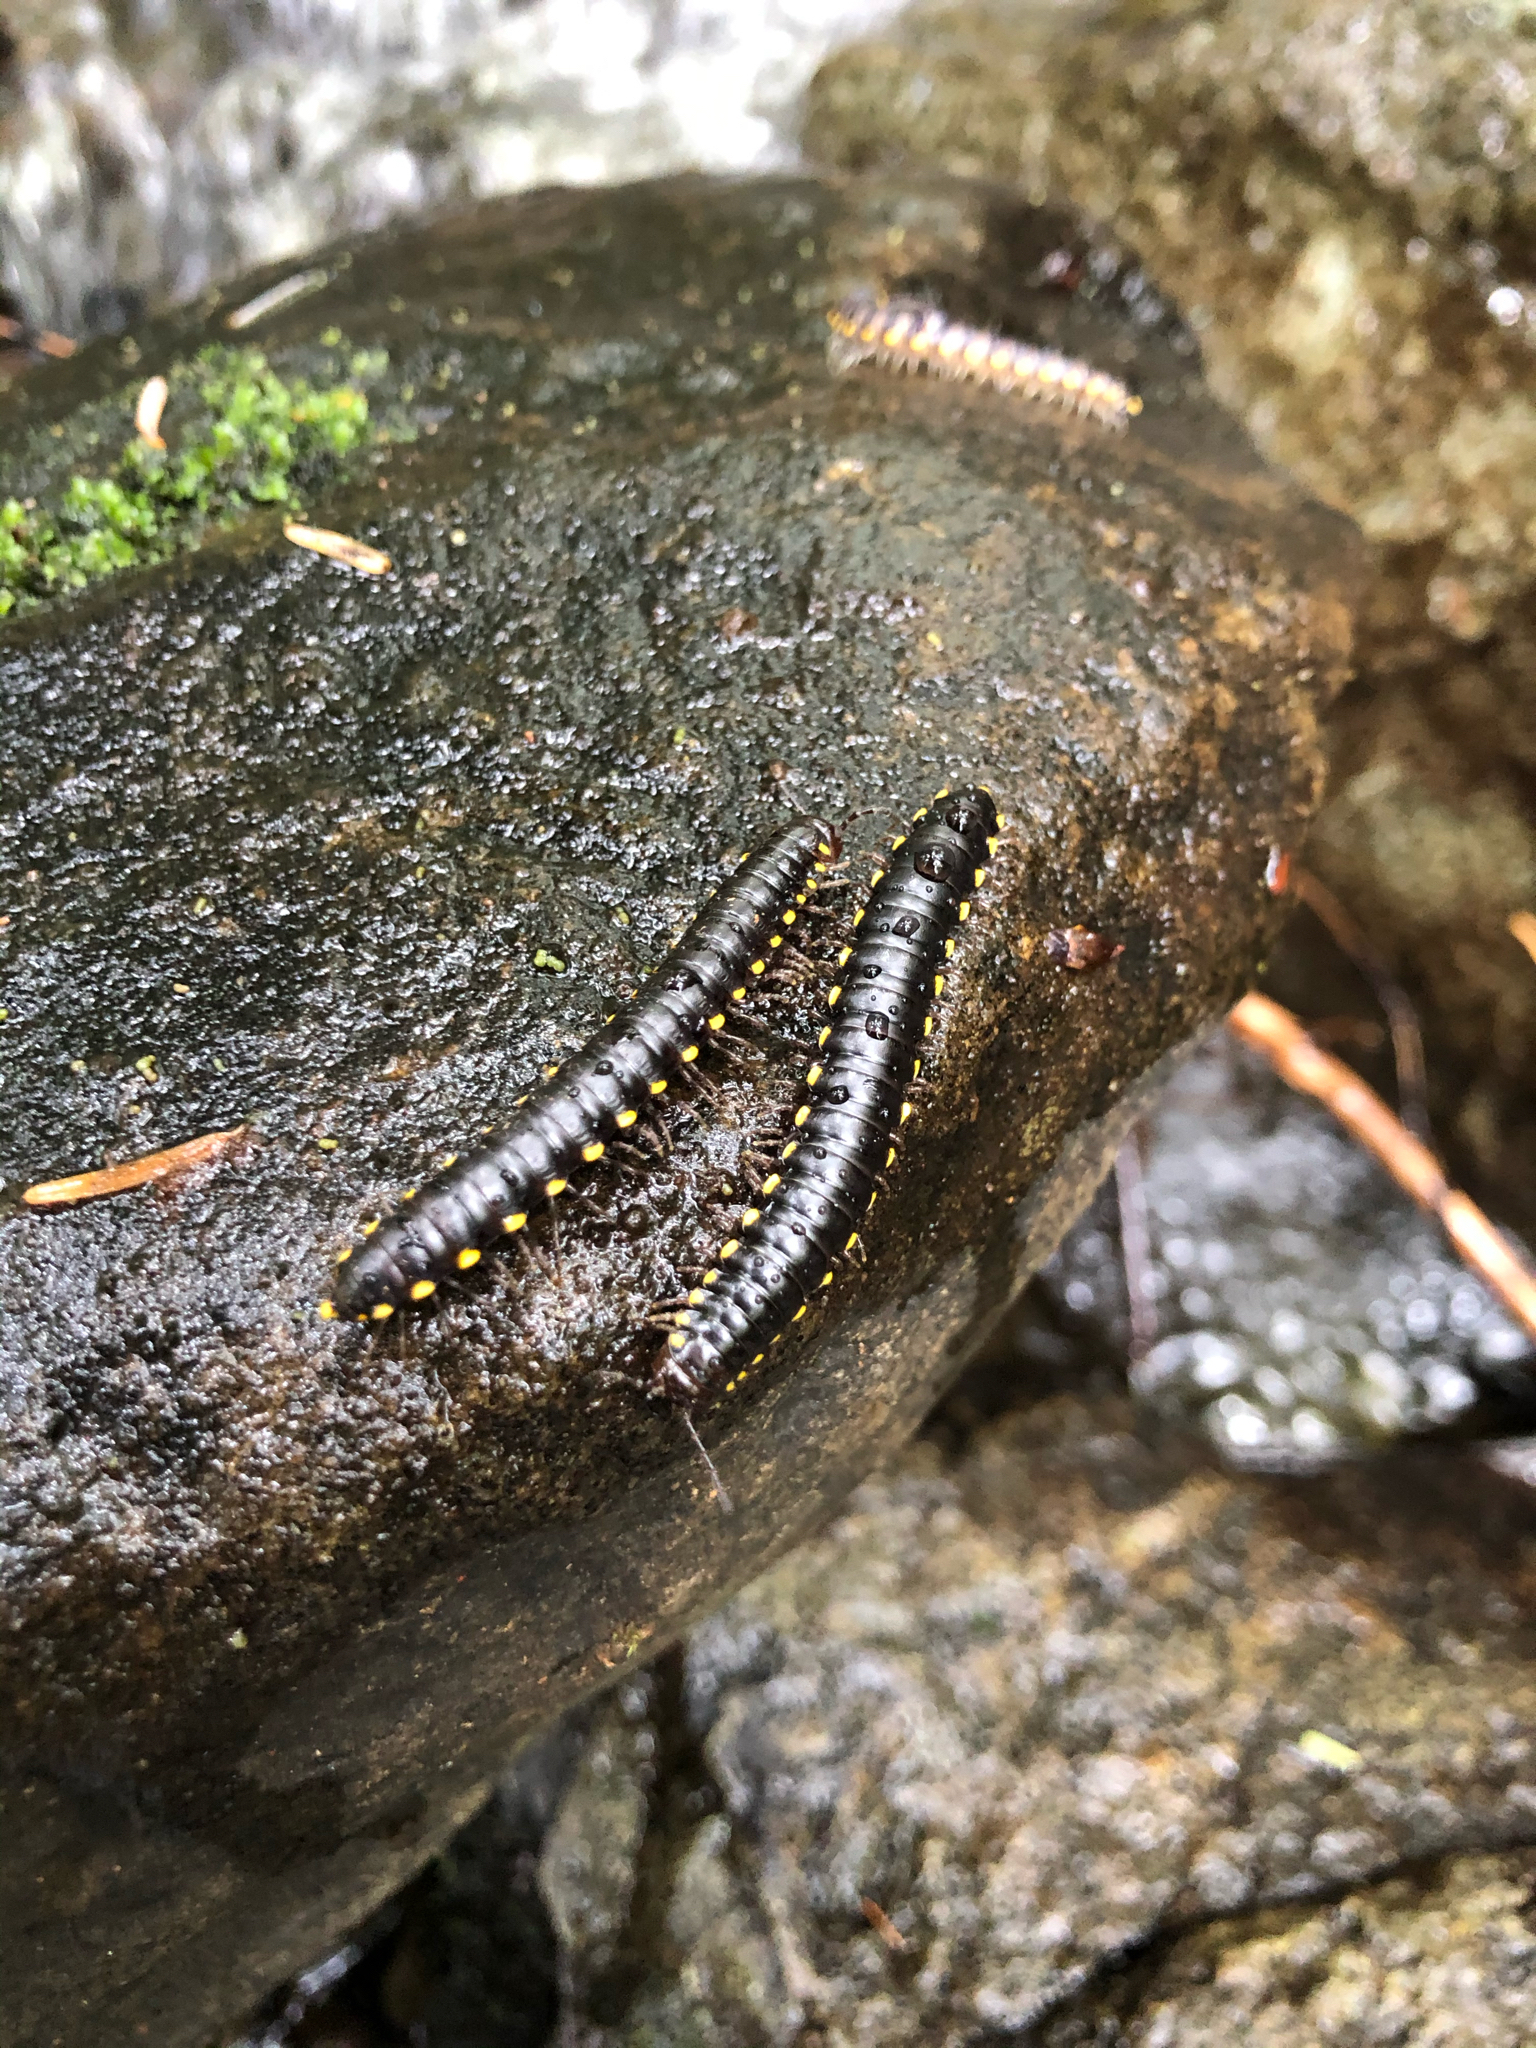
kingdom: Animalia
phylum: Arthropoda
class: Diplopoda
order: Polydesmida
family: Xystodesmidae
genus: Harpaphe
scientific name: Harpaphe haydeniana
